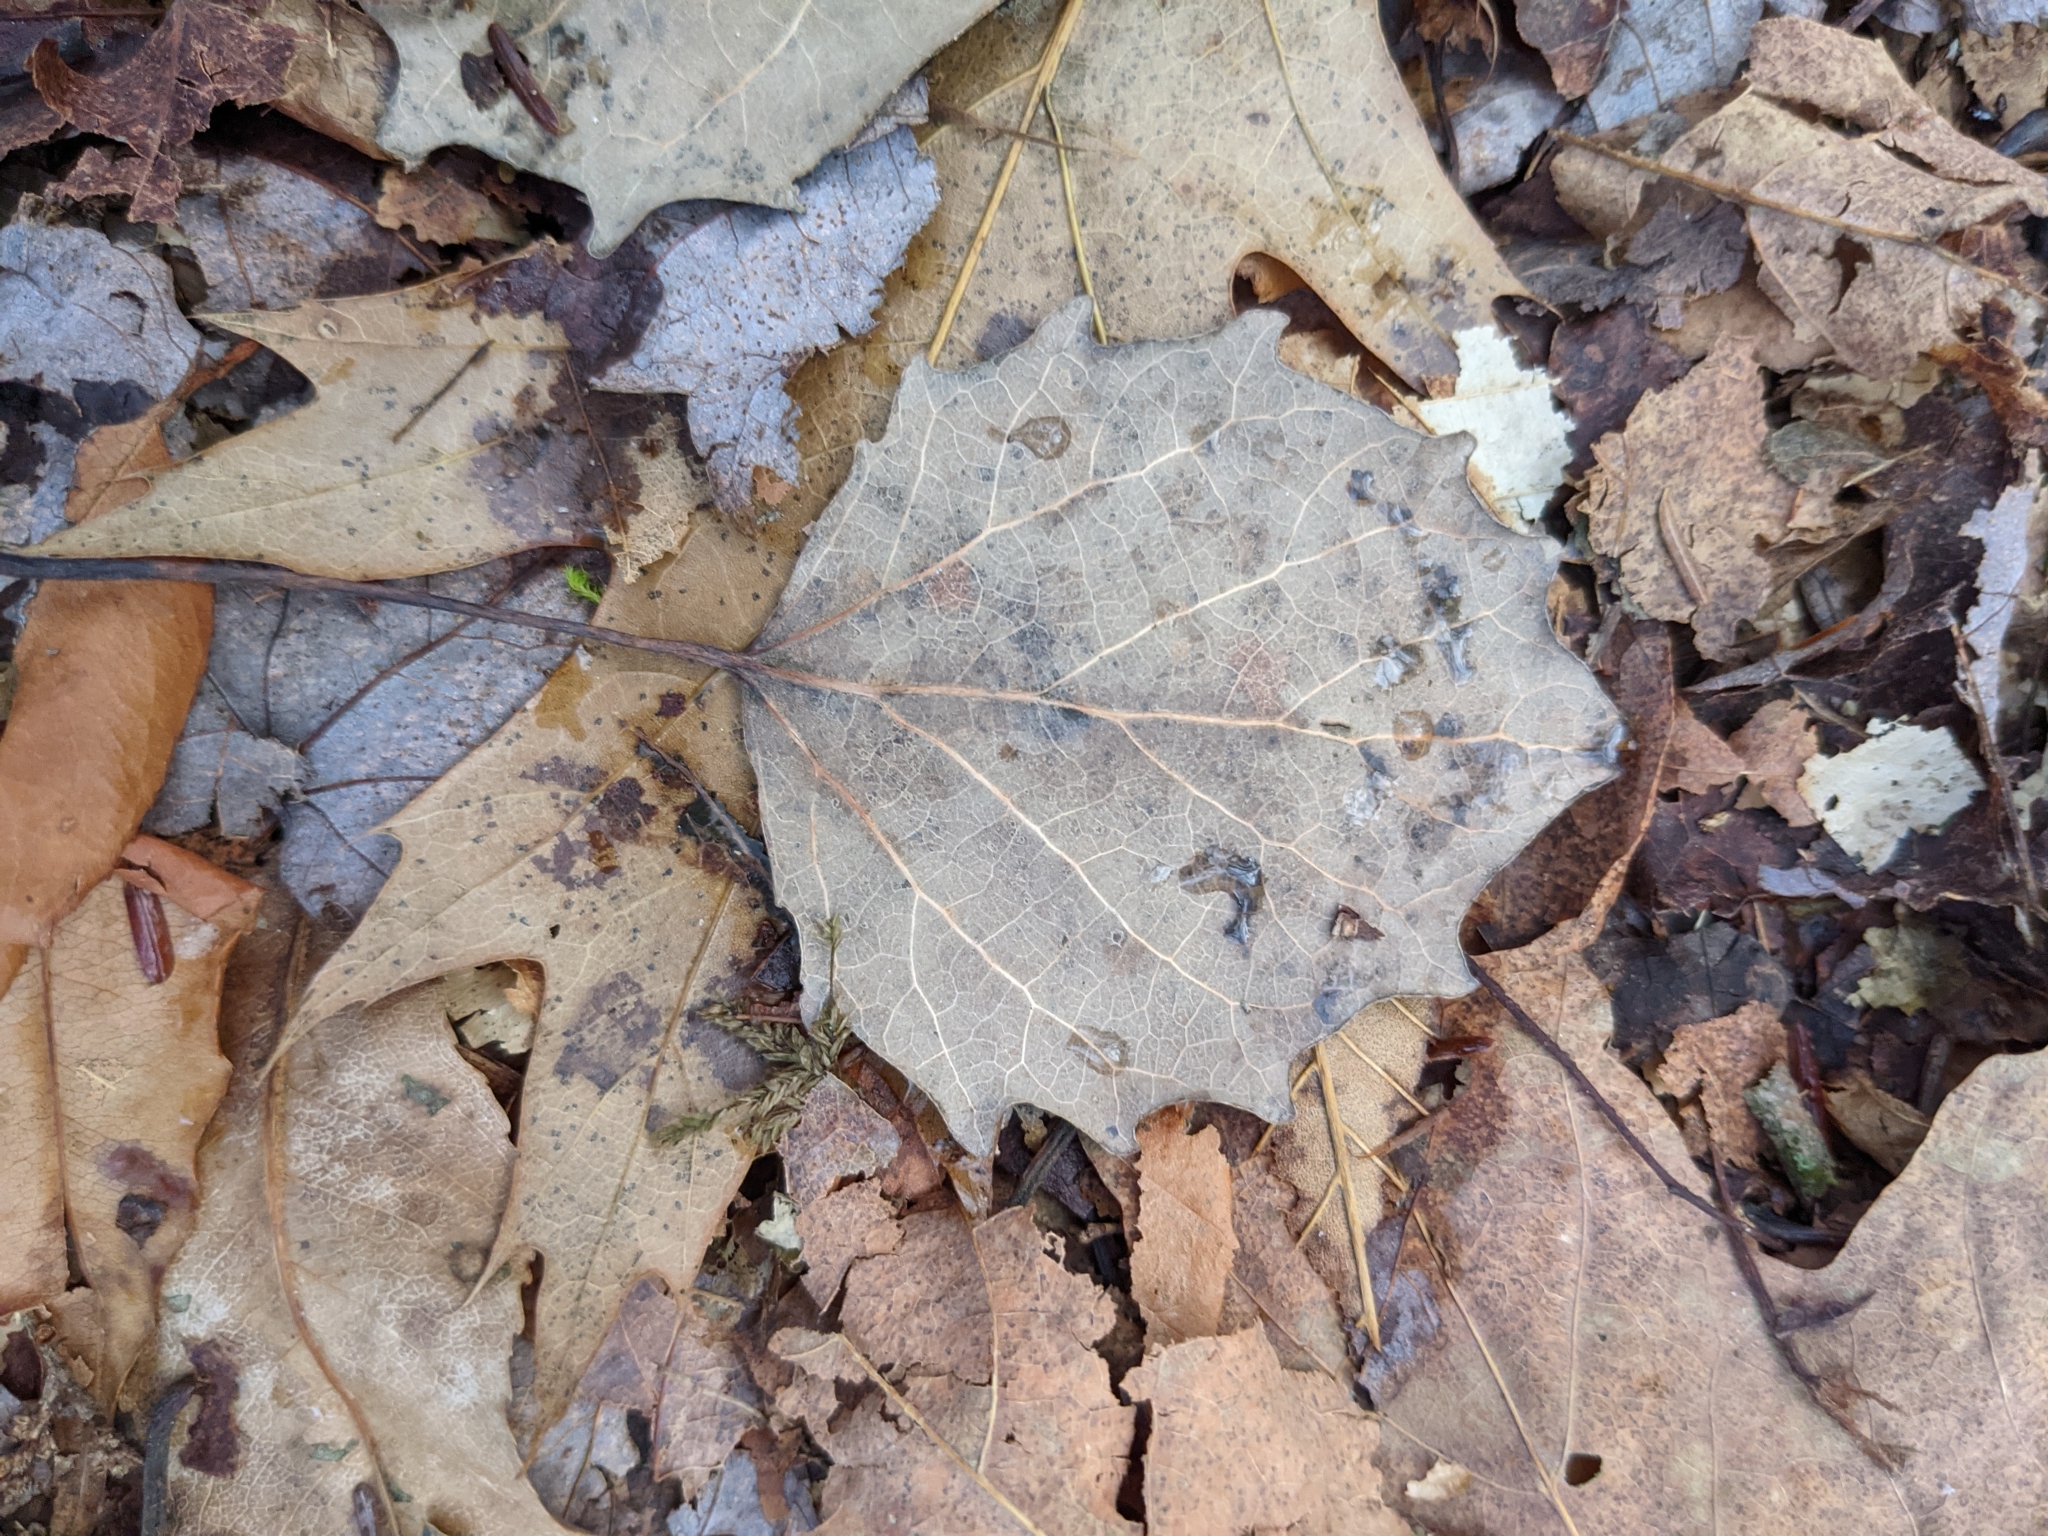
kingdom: Plantae
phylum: Tracheophyta
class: Magnoliopsida
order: Malpighiales
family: Salicaceae
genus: Populus
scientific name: Populus grandidentata
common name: Bigtooth aspen
